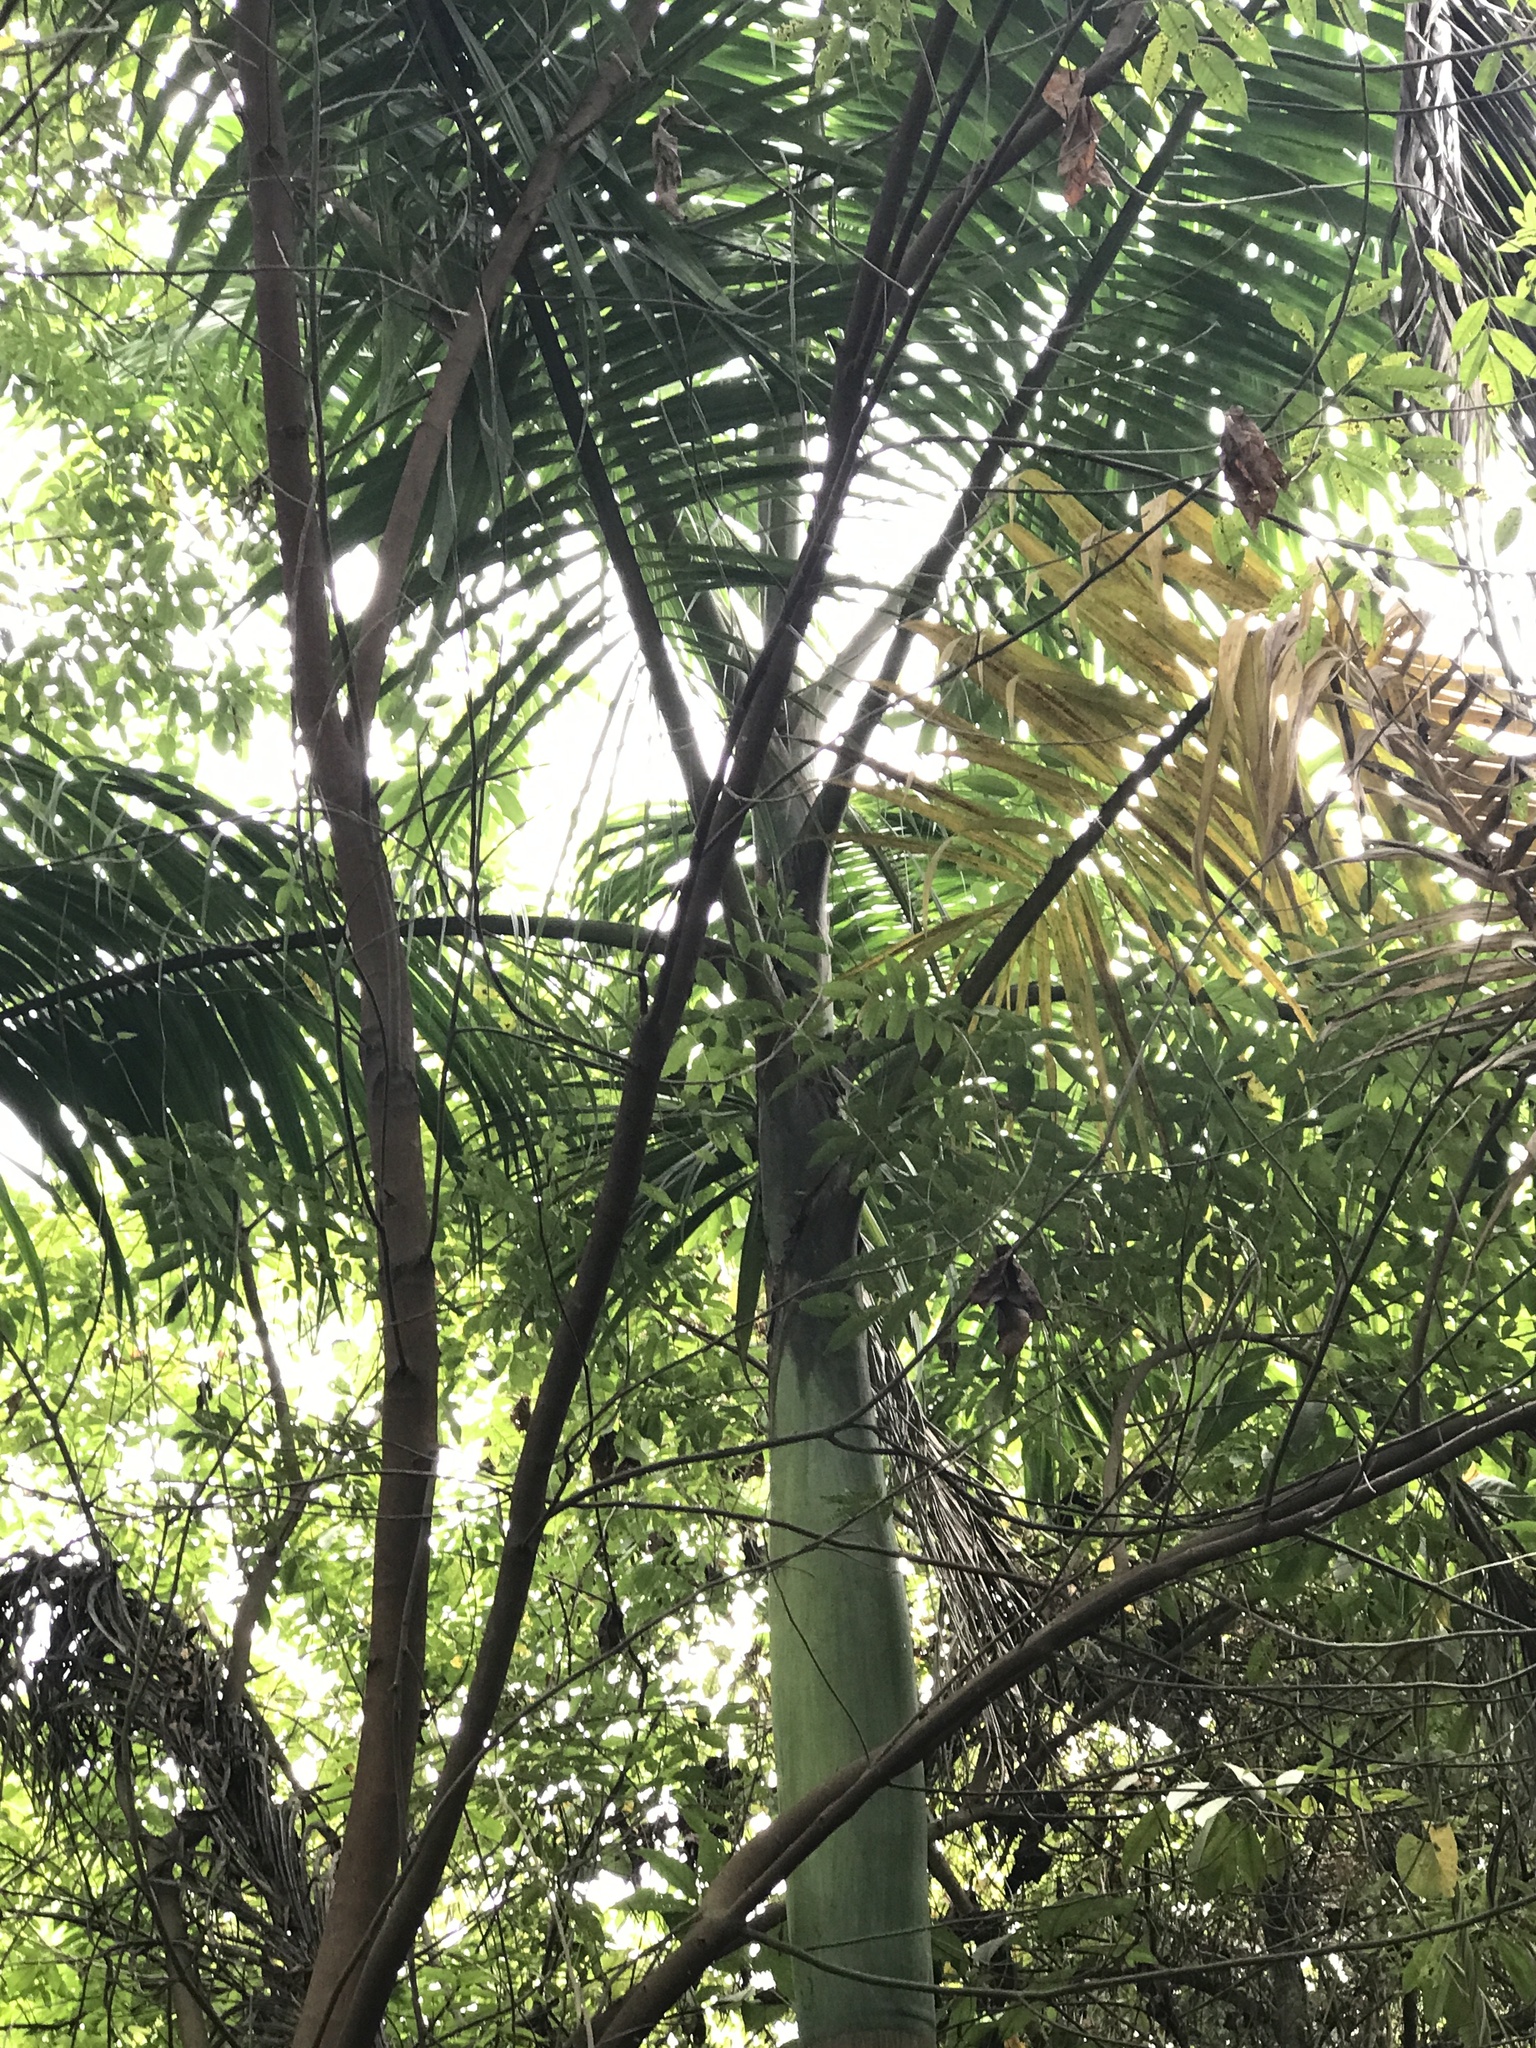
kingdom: Plantae
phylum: Tracheophyta
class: Liliopsida
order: Arecales
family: Arecaceae
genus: Roystonea
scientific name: Roystonea oleracea
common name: South american royal palm
